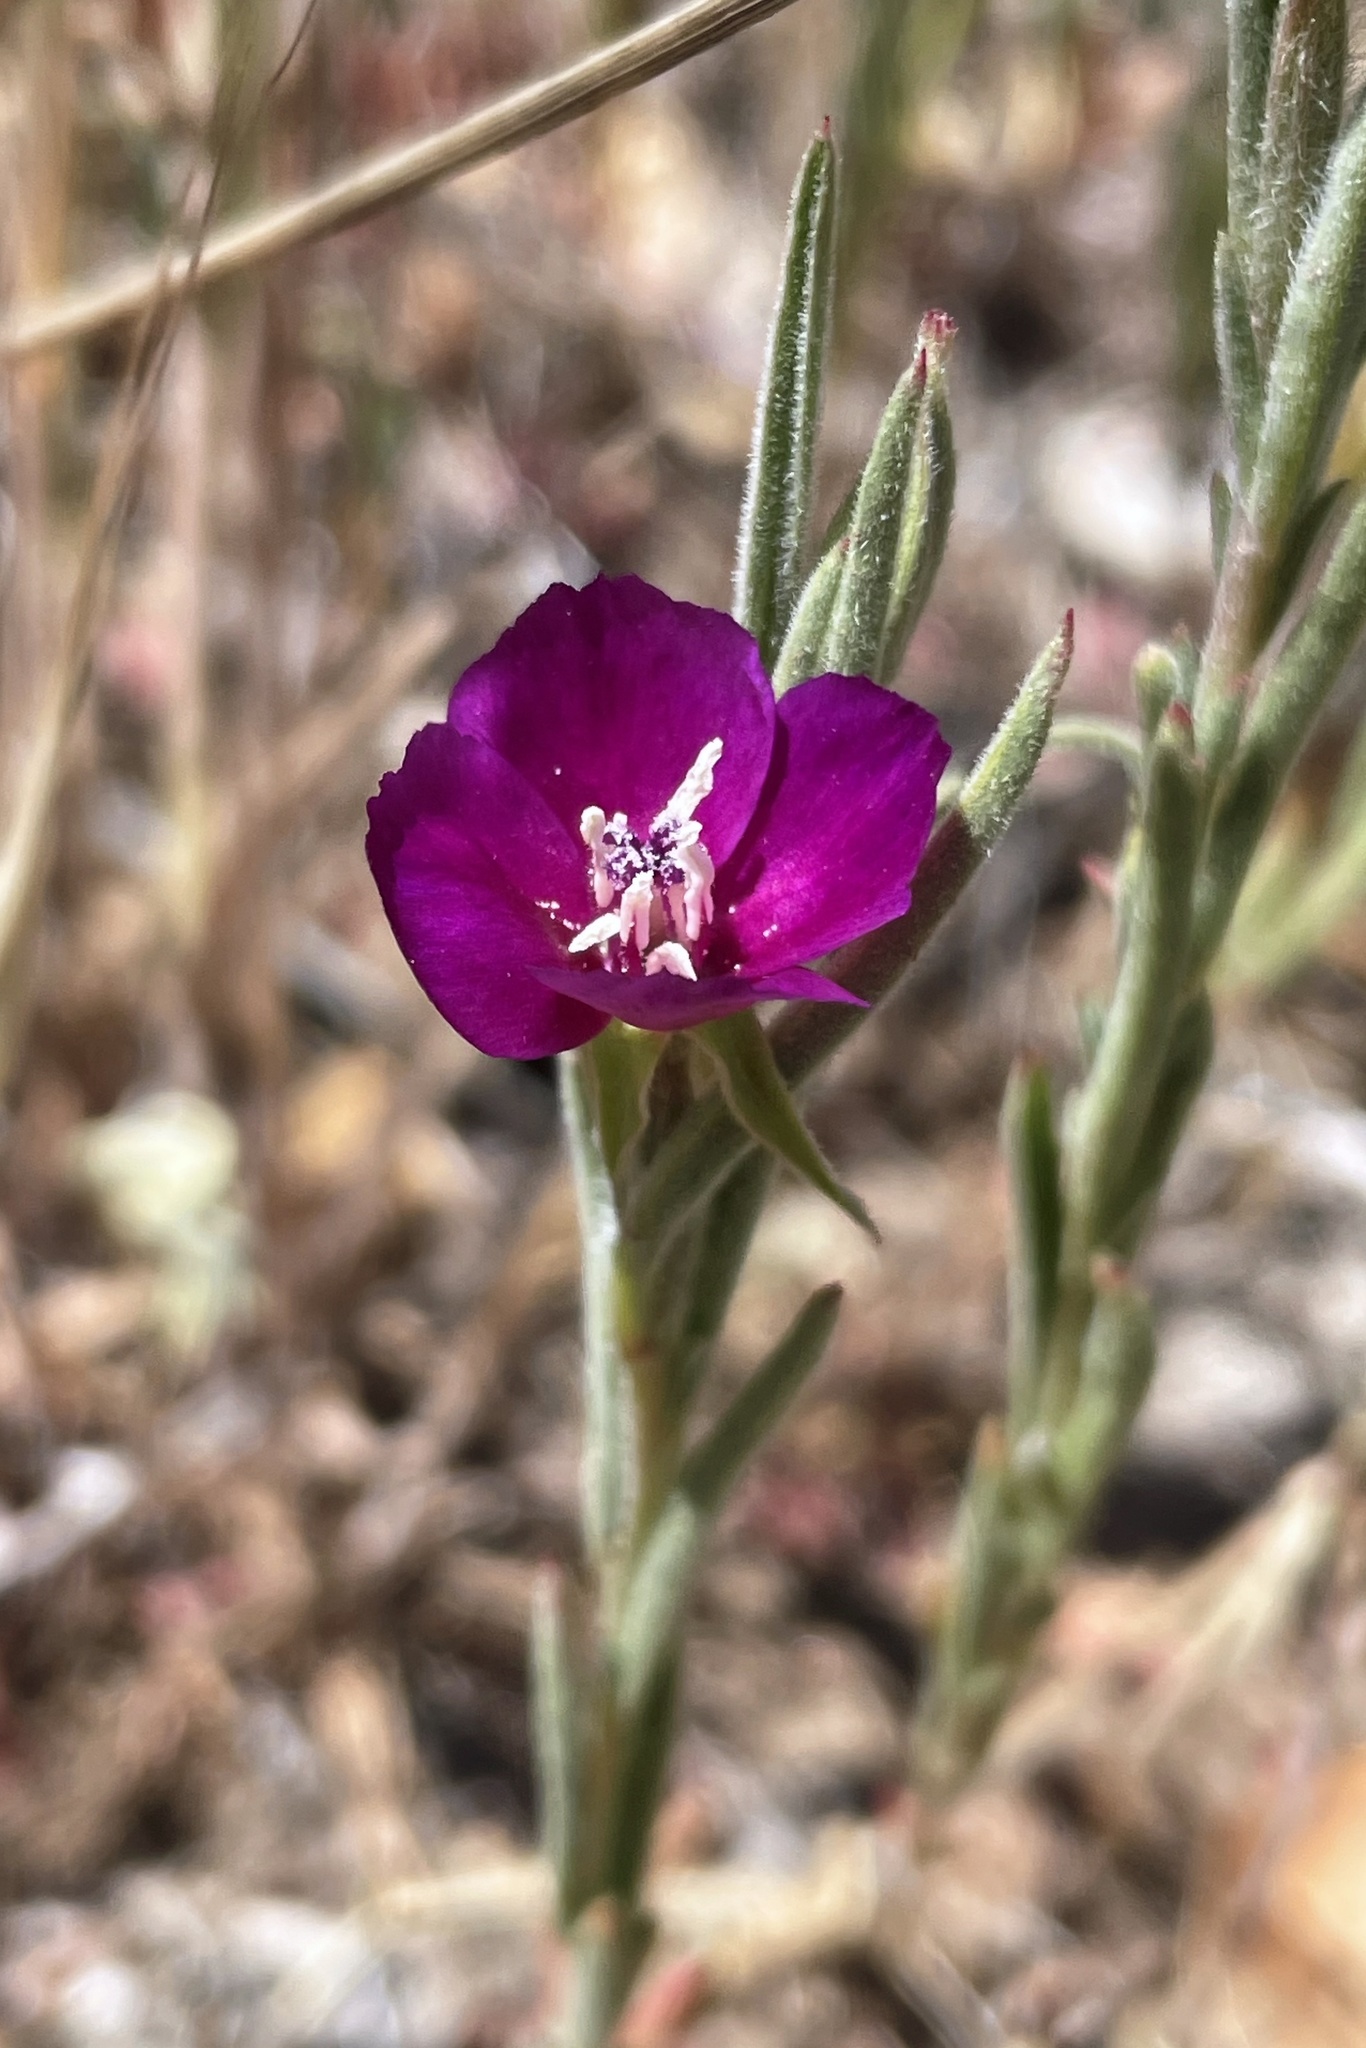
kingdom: Plantae
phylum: Tracheophyta
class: Magnoliopsida
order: Myrtales
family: Onagraceae
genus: Clarkia
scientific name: Clarkia purpurea
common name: Purple clarkia
